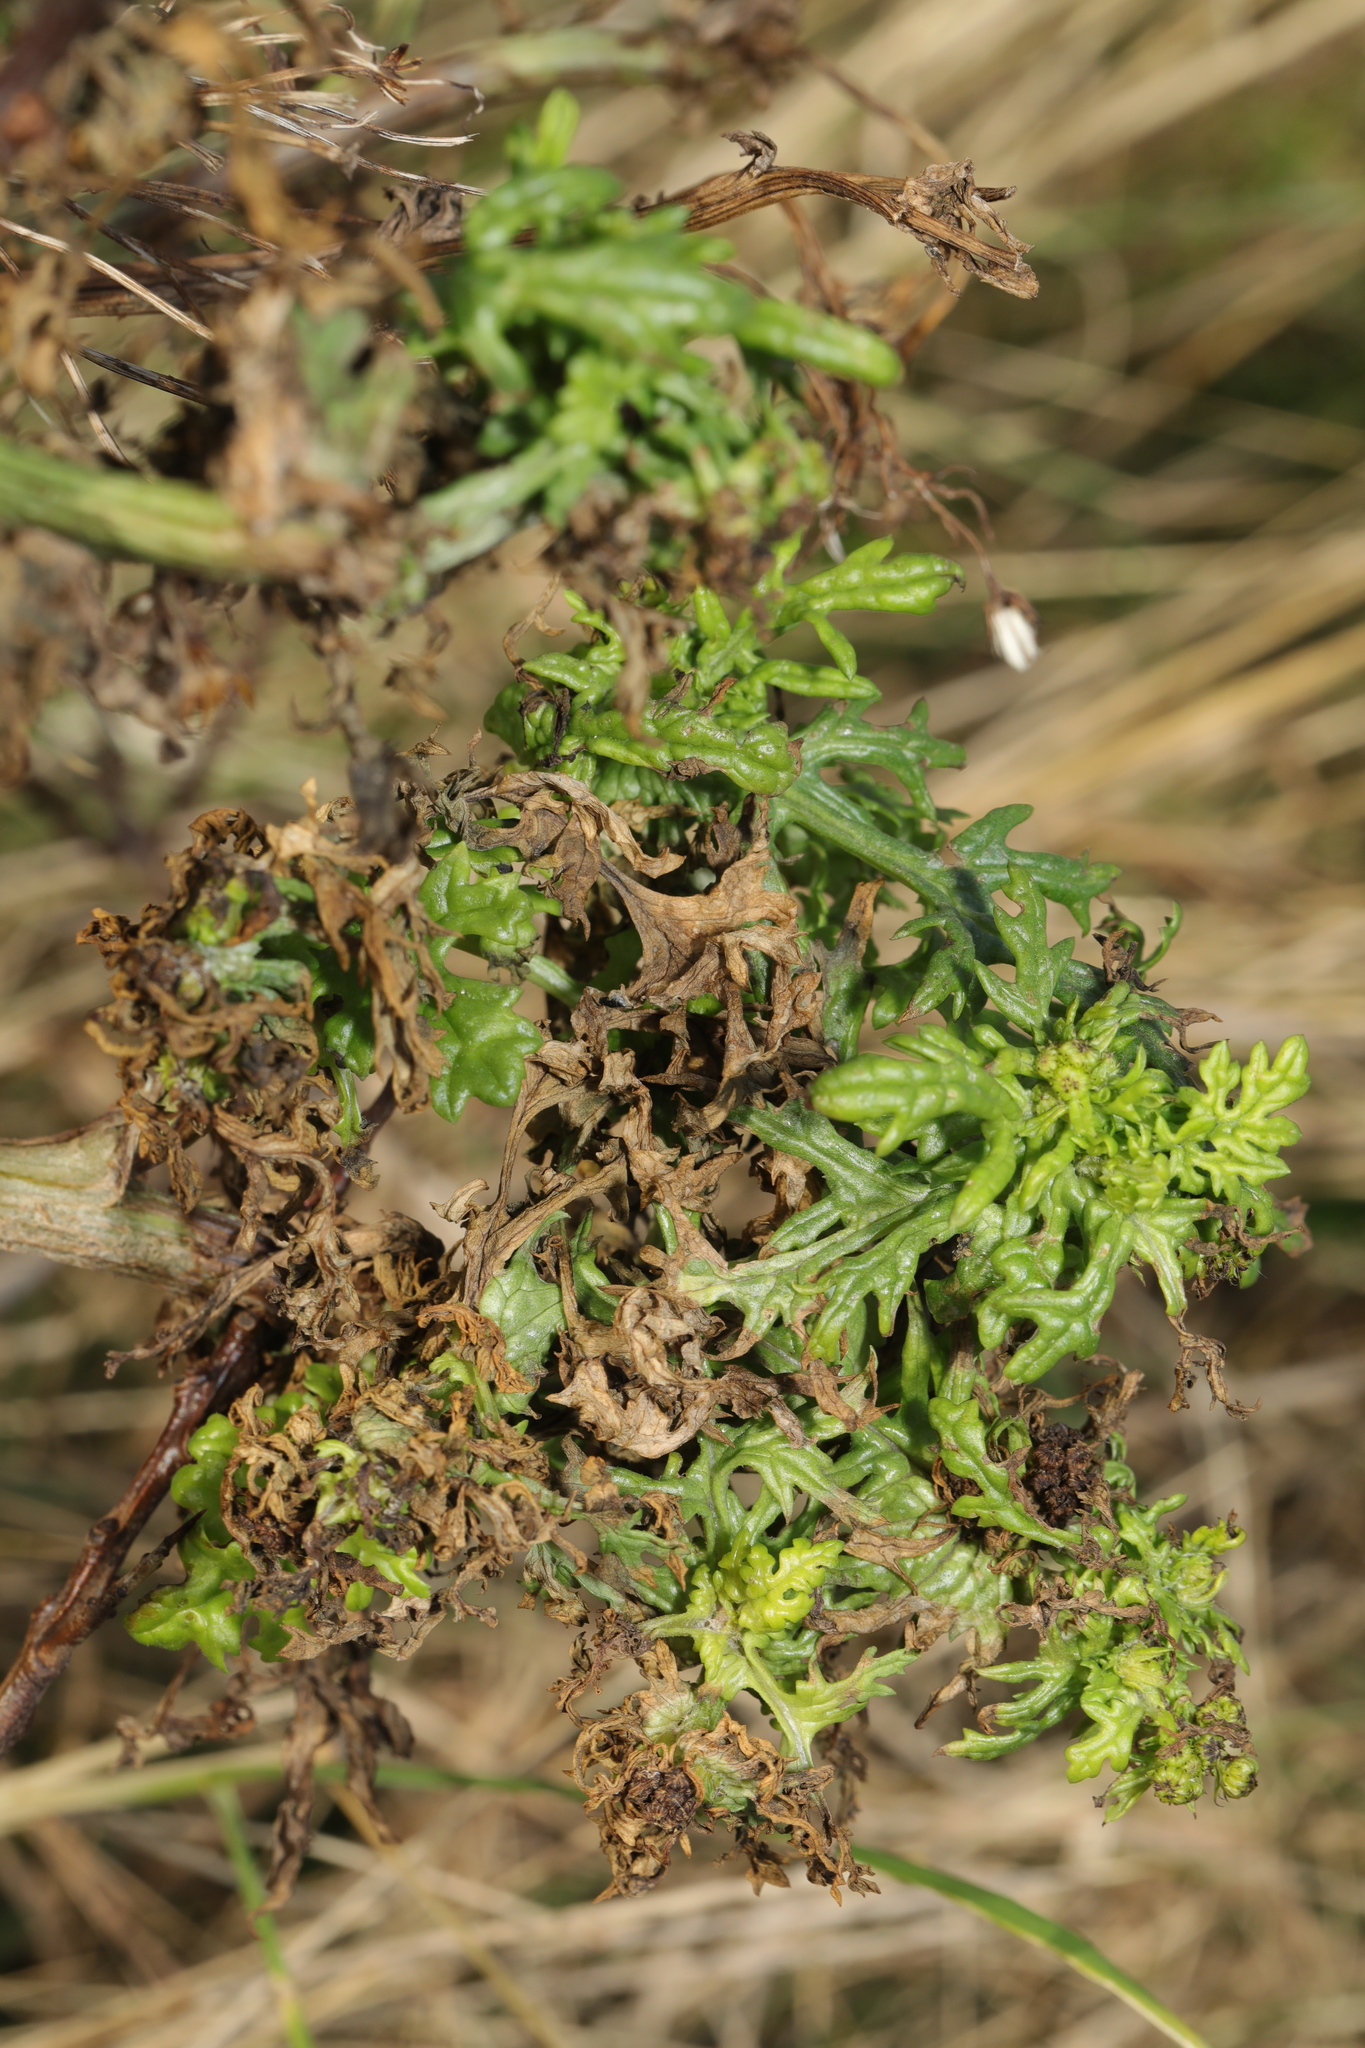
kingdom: Plantae
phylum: Tracheophyta
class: Magnoliopsida
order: Asterales
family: Asteraceae
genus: Senecio
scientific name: Senecio squalidus
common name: Oxford ragwort
